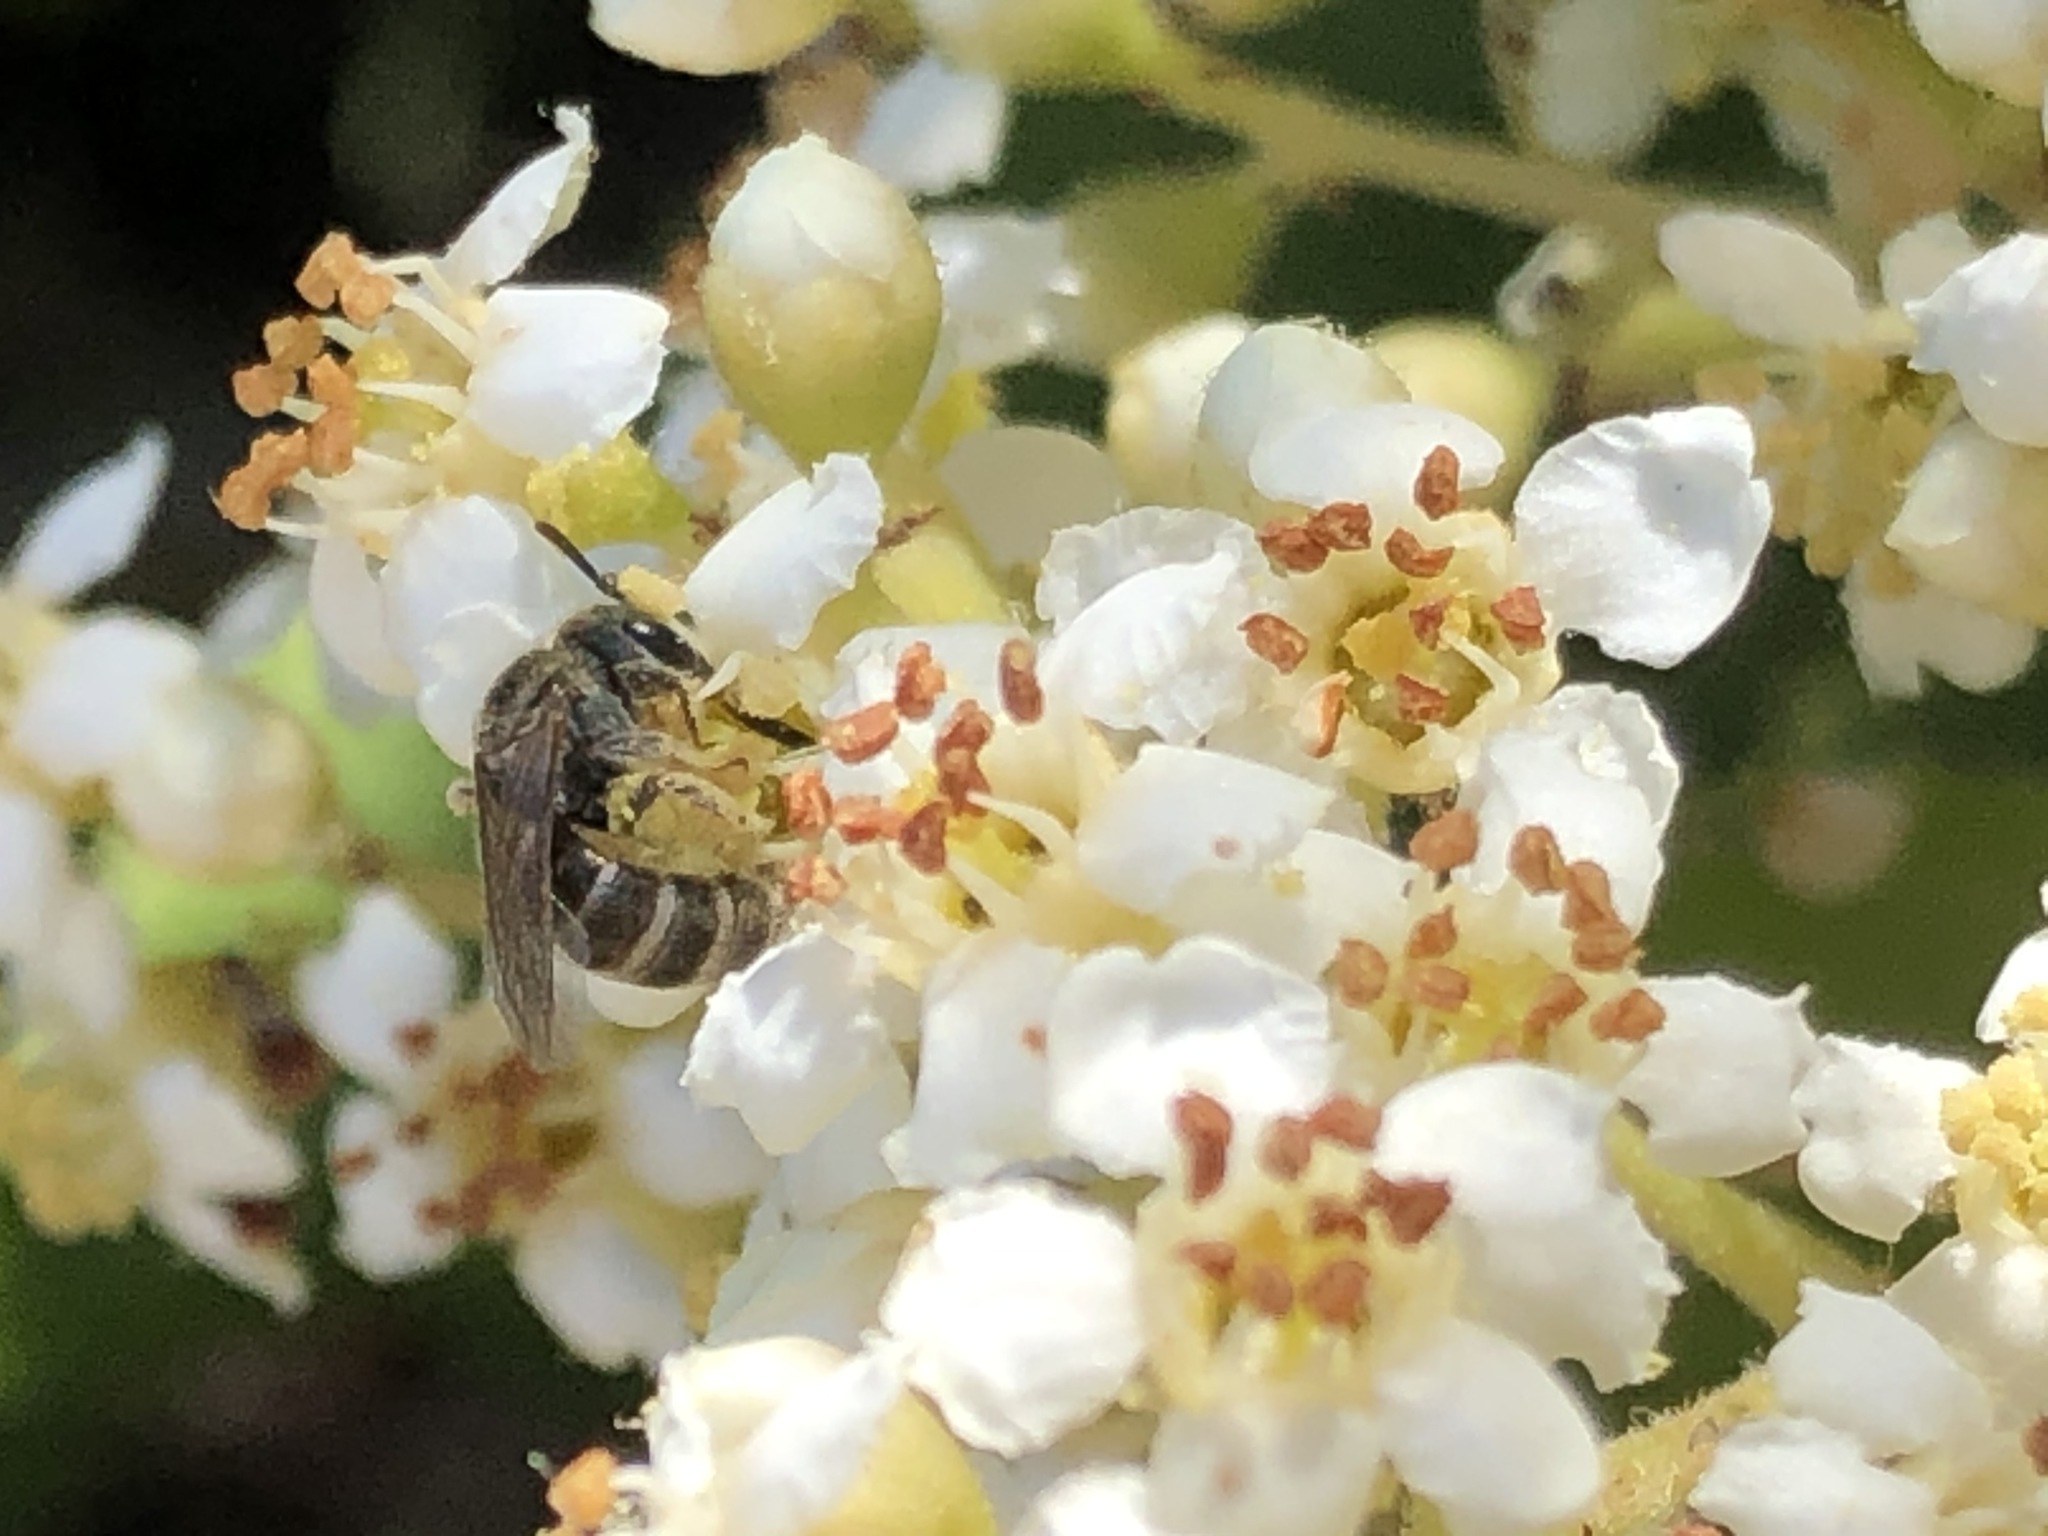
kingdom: Animalia
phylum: Arthropoda
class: Insecta
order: Hymenoptera
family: Halictidae
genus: Halictus
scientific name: Halictus tripartitus
